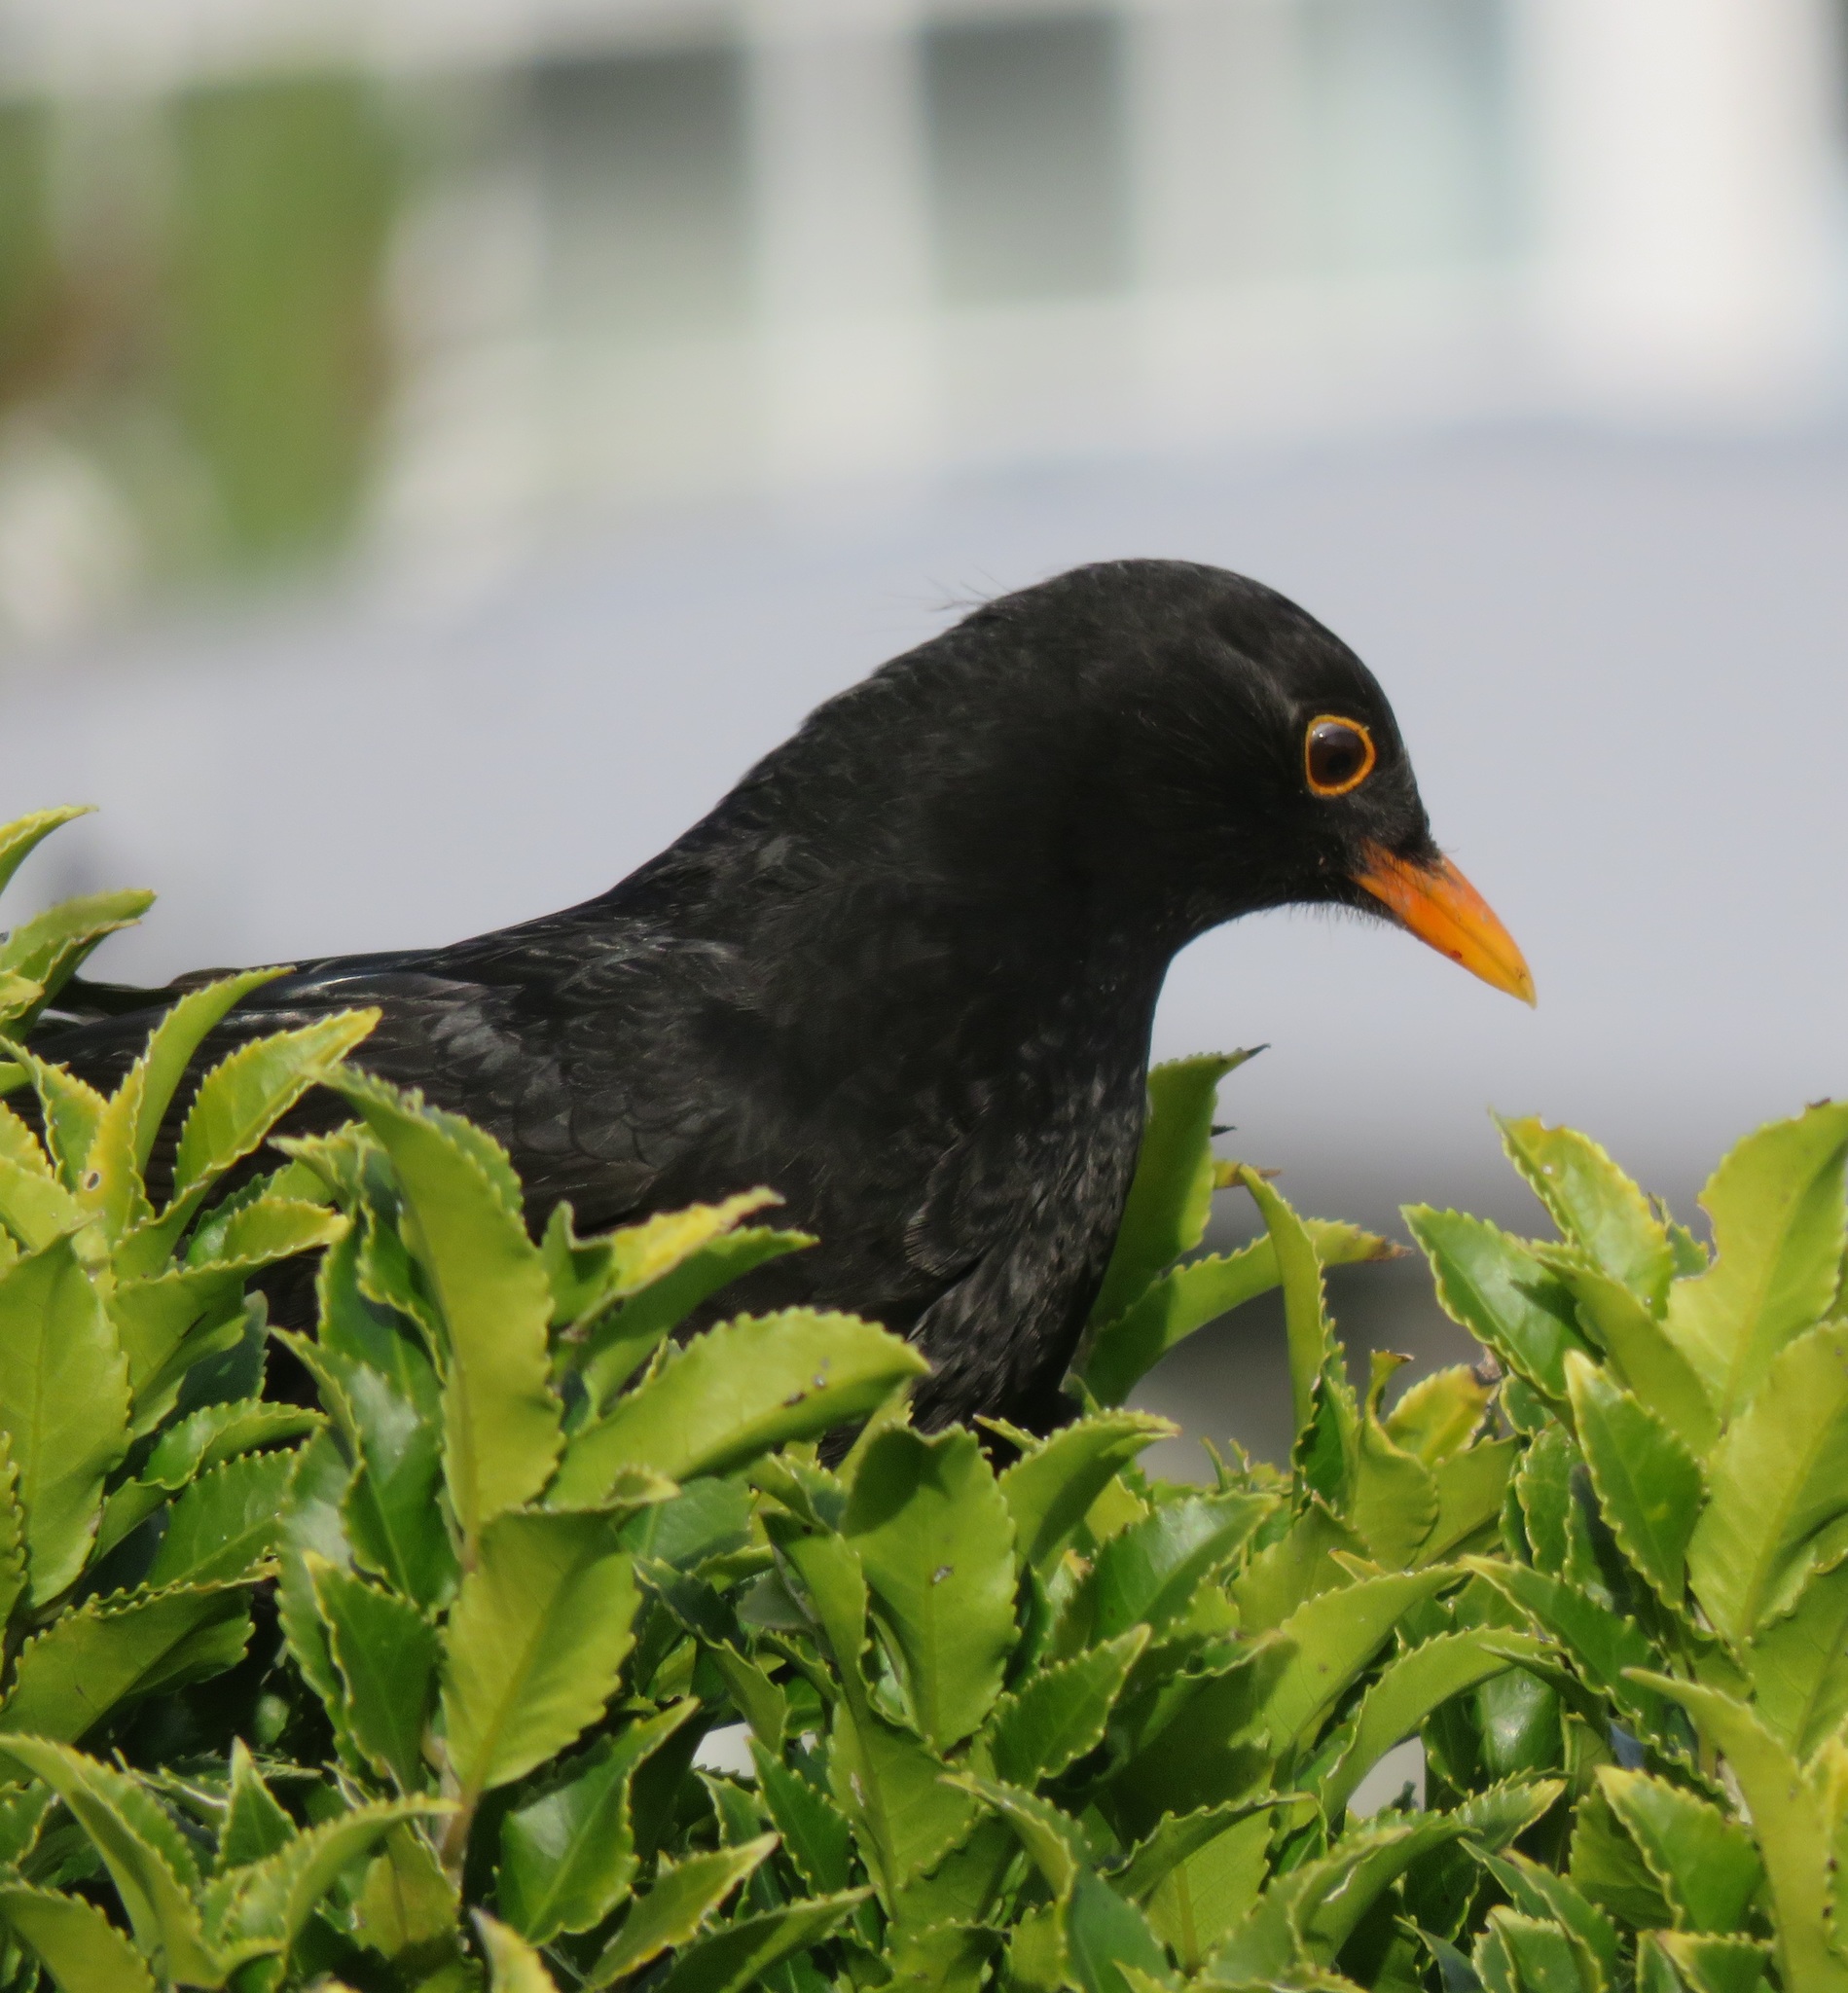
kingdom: Animalia
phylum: Chordata
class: Aves
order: Passeriformes
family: Turdidae
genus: Turdus
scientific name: Turdus merula
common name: Common blackbird
